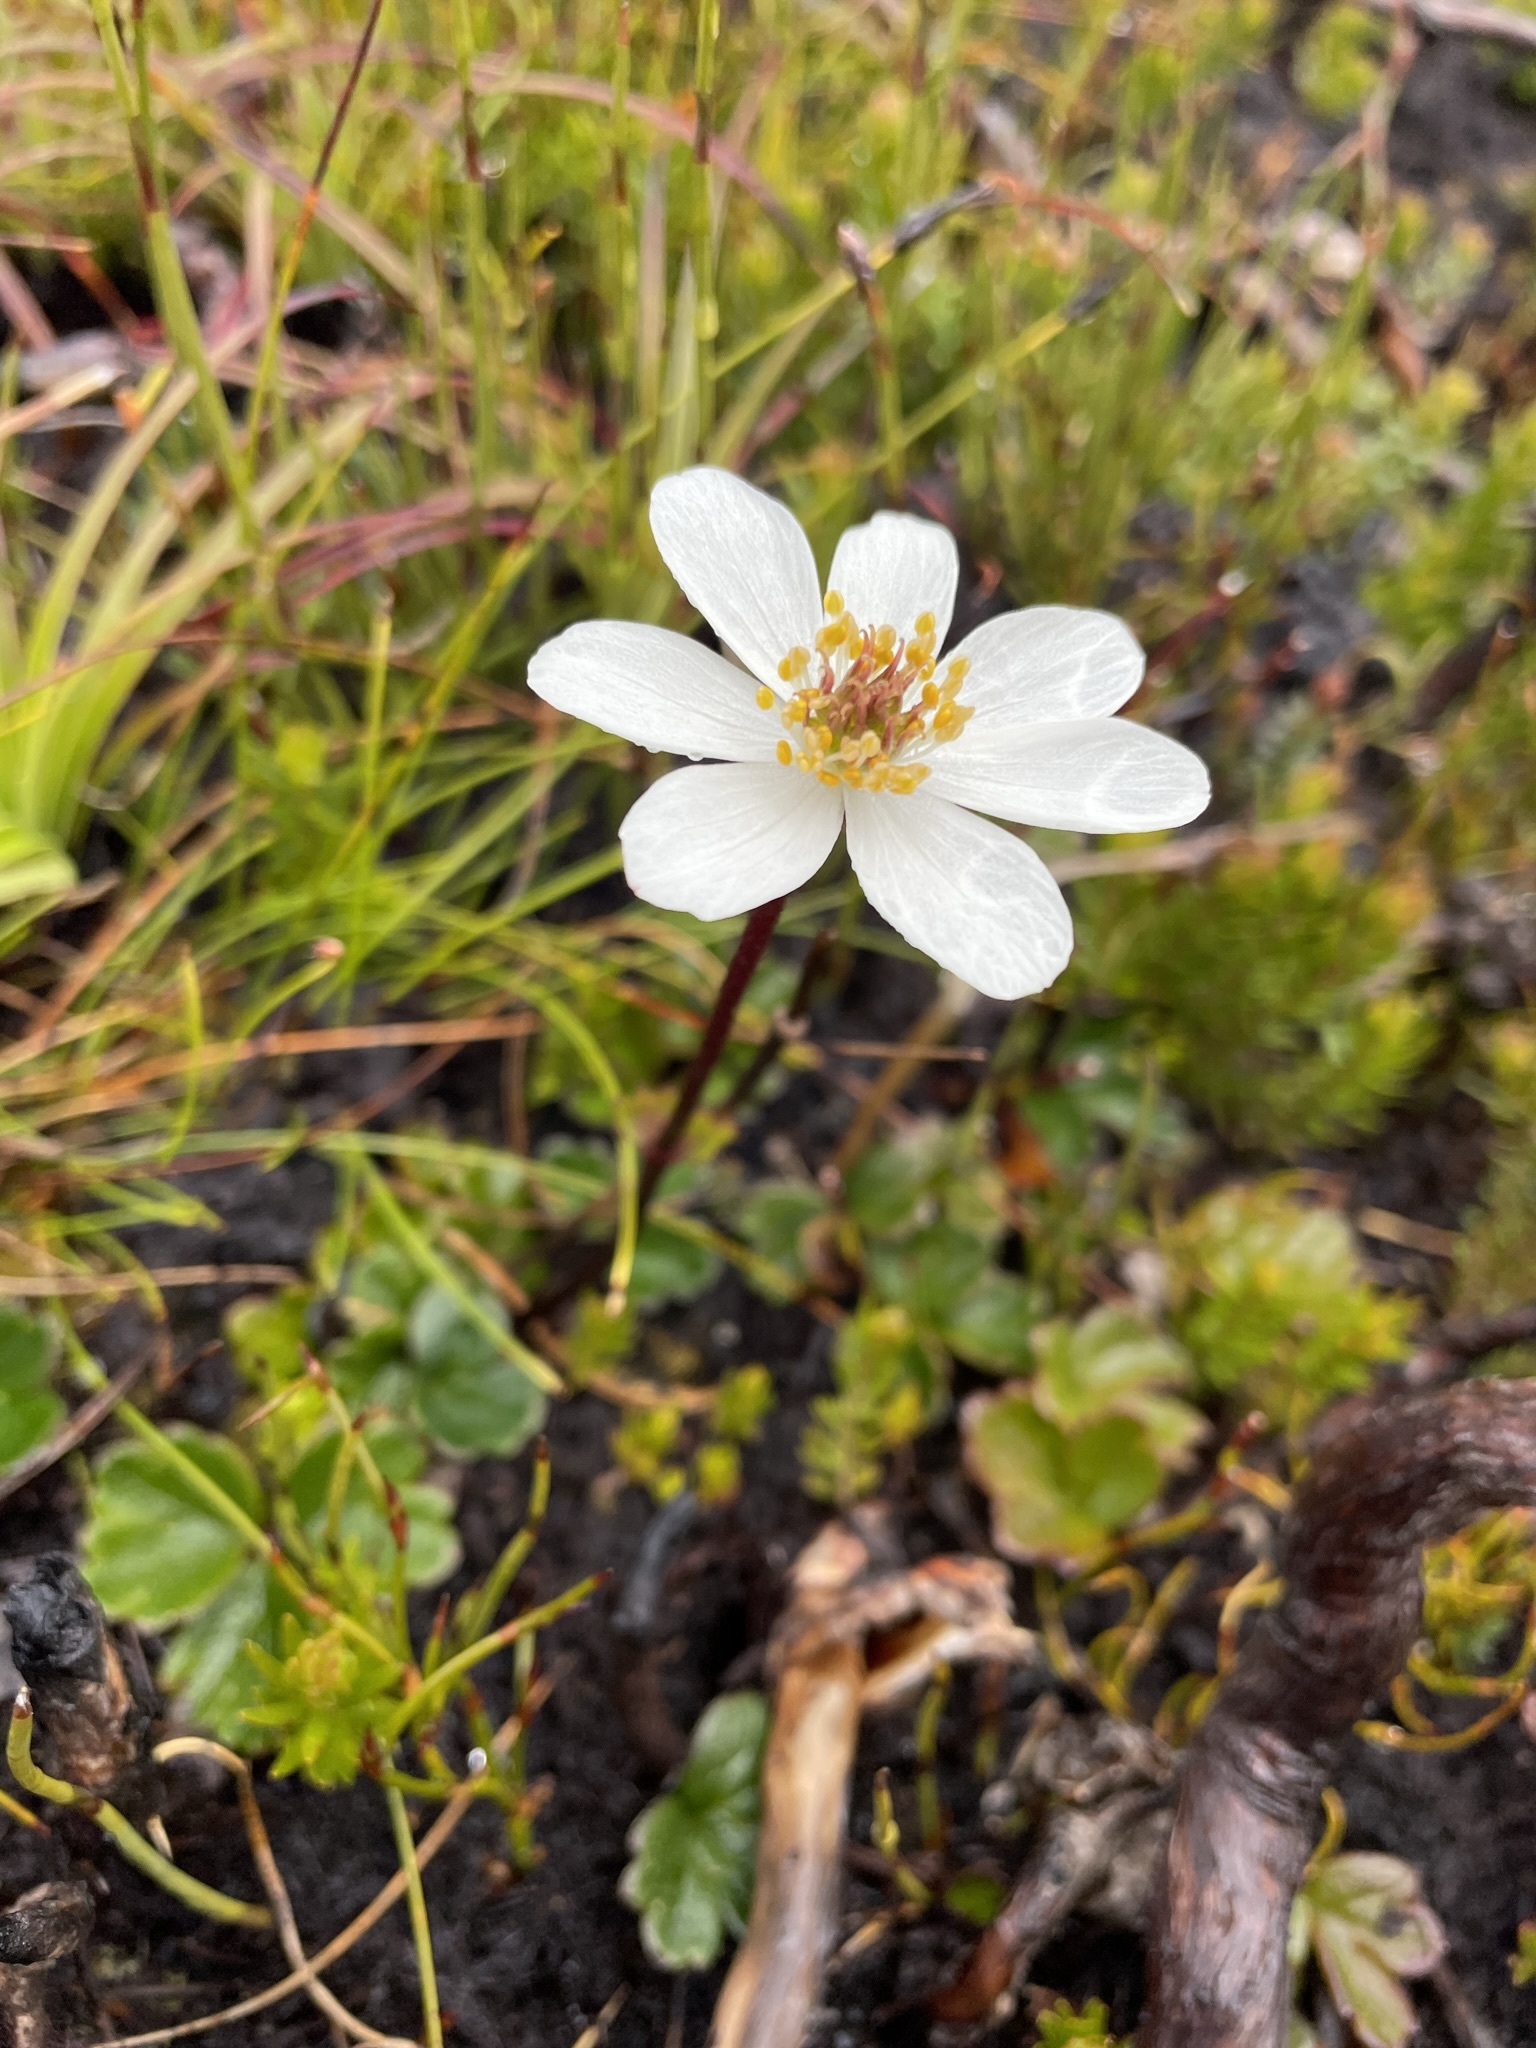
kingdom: Plantae
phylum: Tracheophyta
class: Magnoliopsida
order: Ranunculales
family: Ranunculaceae
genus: Knowltonia
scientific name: Knowltonia crassifolia
